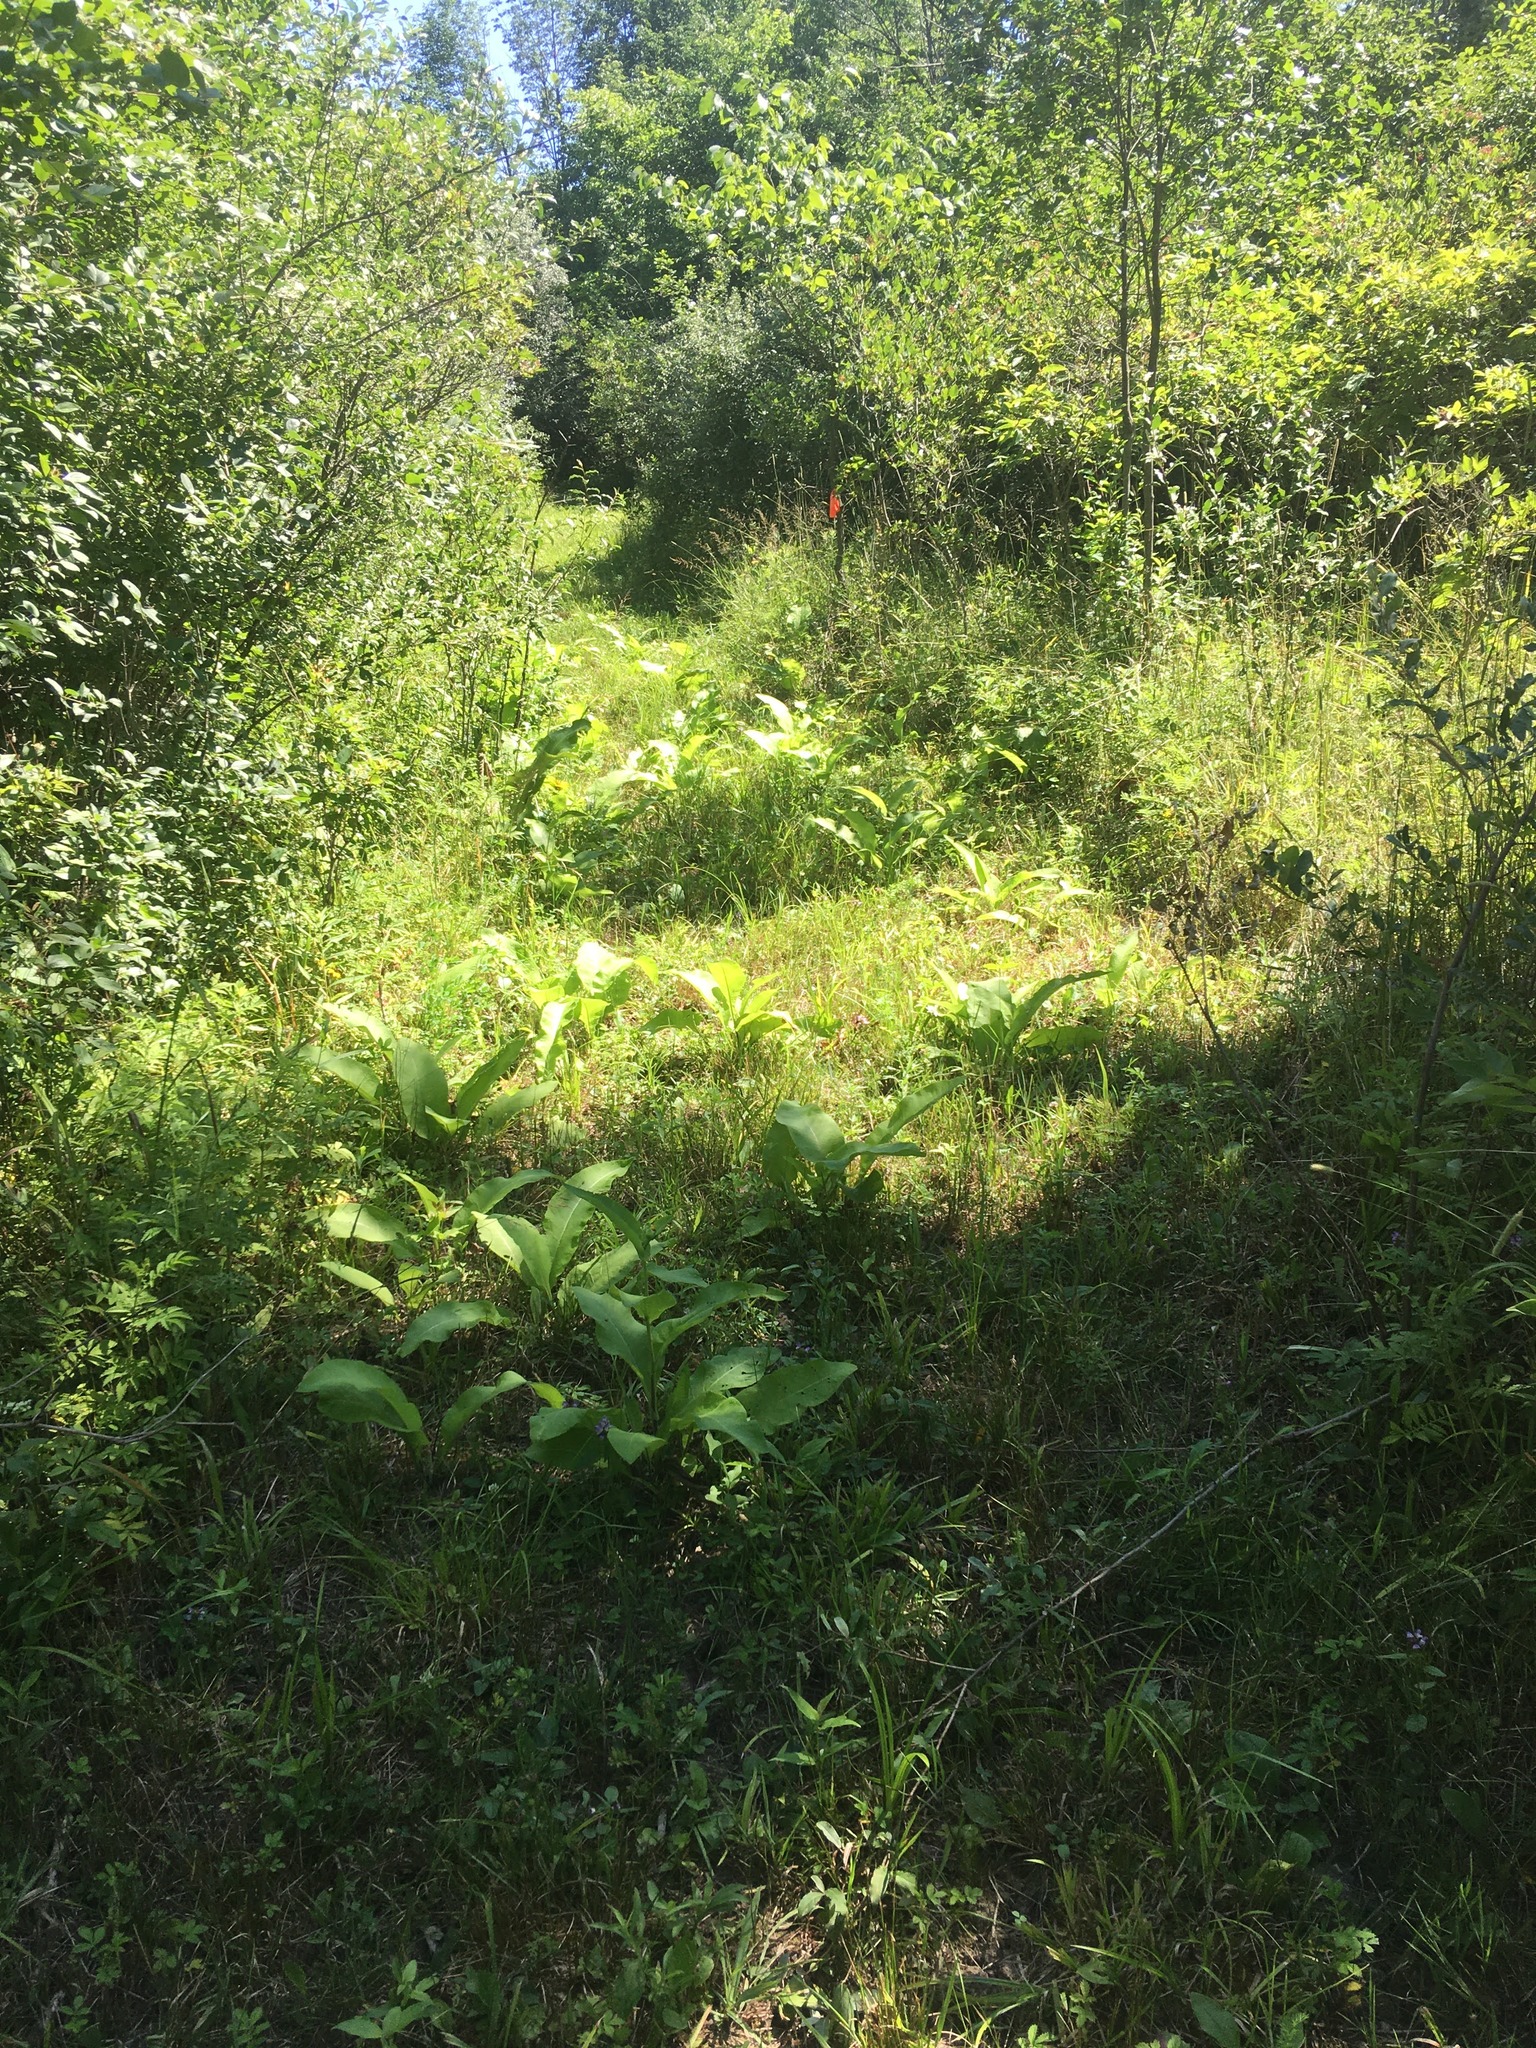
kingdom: Plantae
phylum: Tracheophyta
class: Magnoliopsida
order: Asterales
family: Asteraceae
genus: Inula
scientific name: Inula helenium
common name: Elecampane
